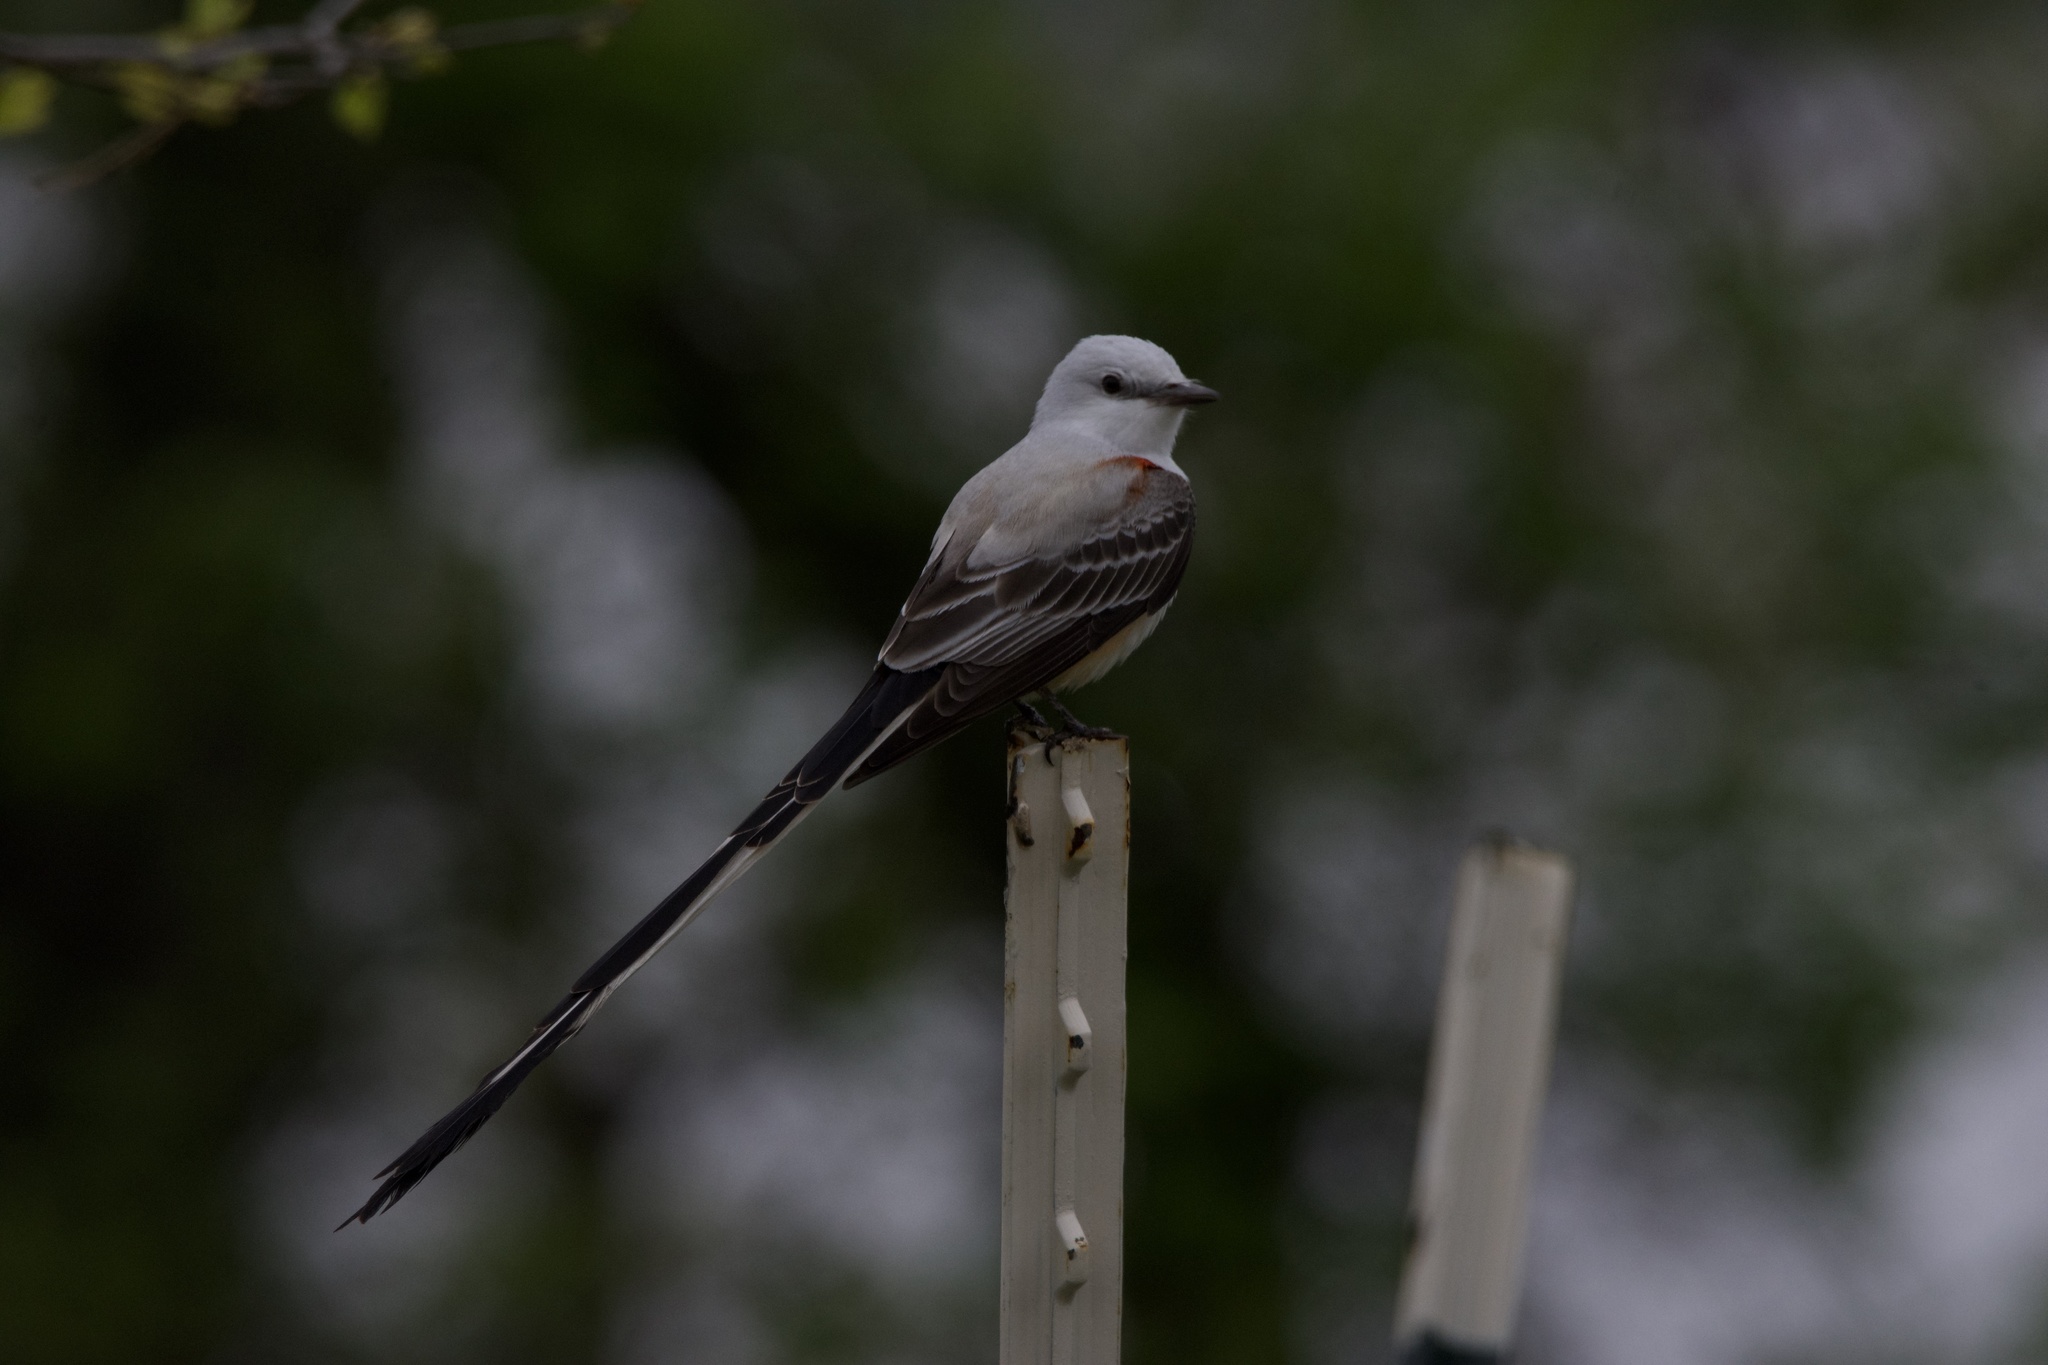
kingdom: Animalia
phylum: Chordata
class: Aves
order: Passeriformes
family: Tyrannidae
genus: Tyrannus
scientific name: Tyrannus forficatus
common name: Scissor-tailed flycatcher
